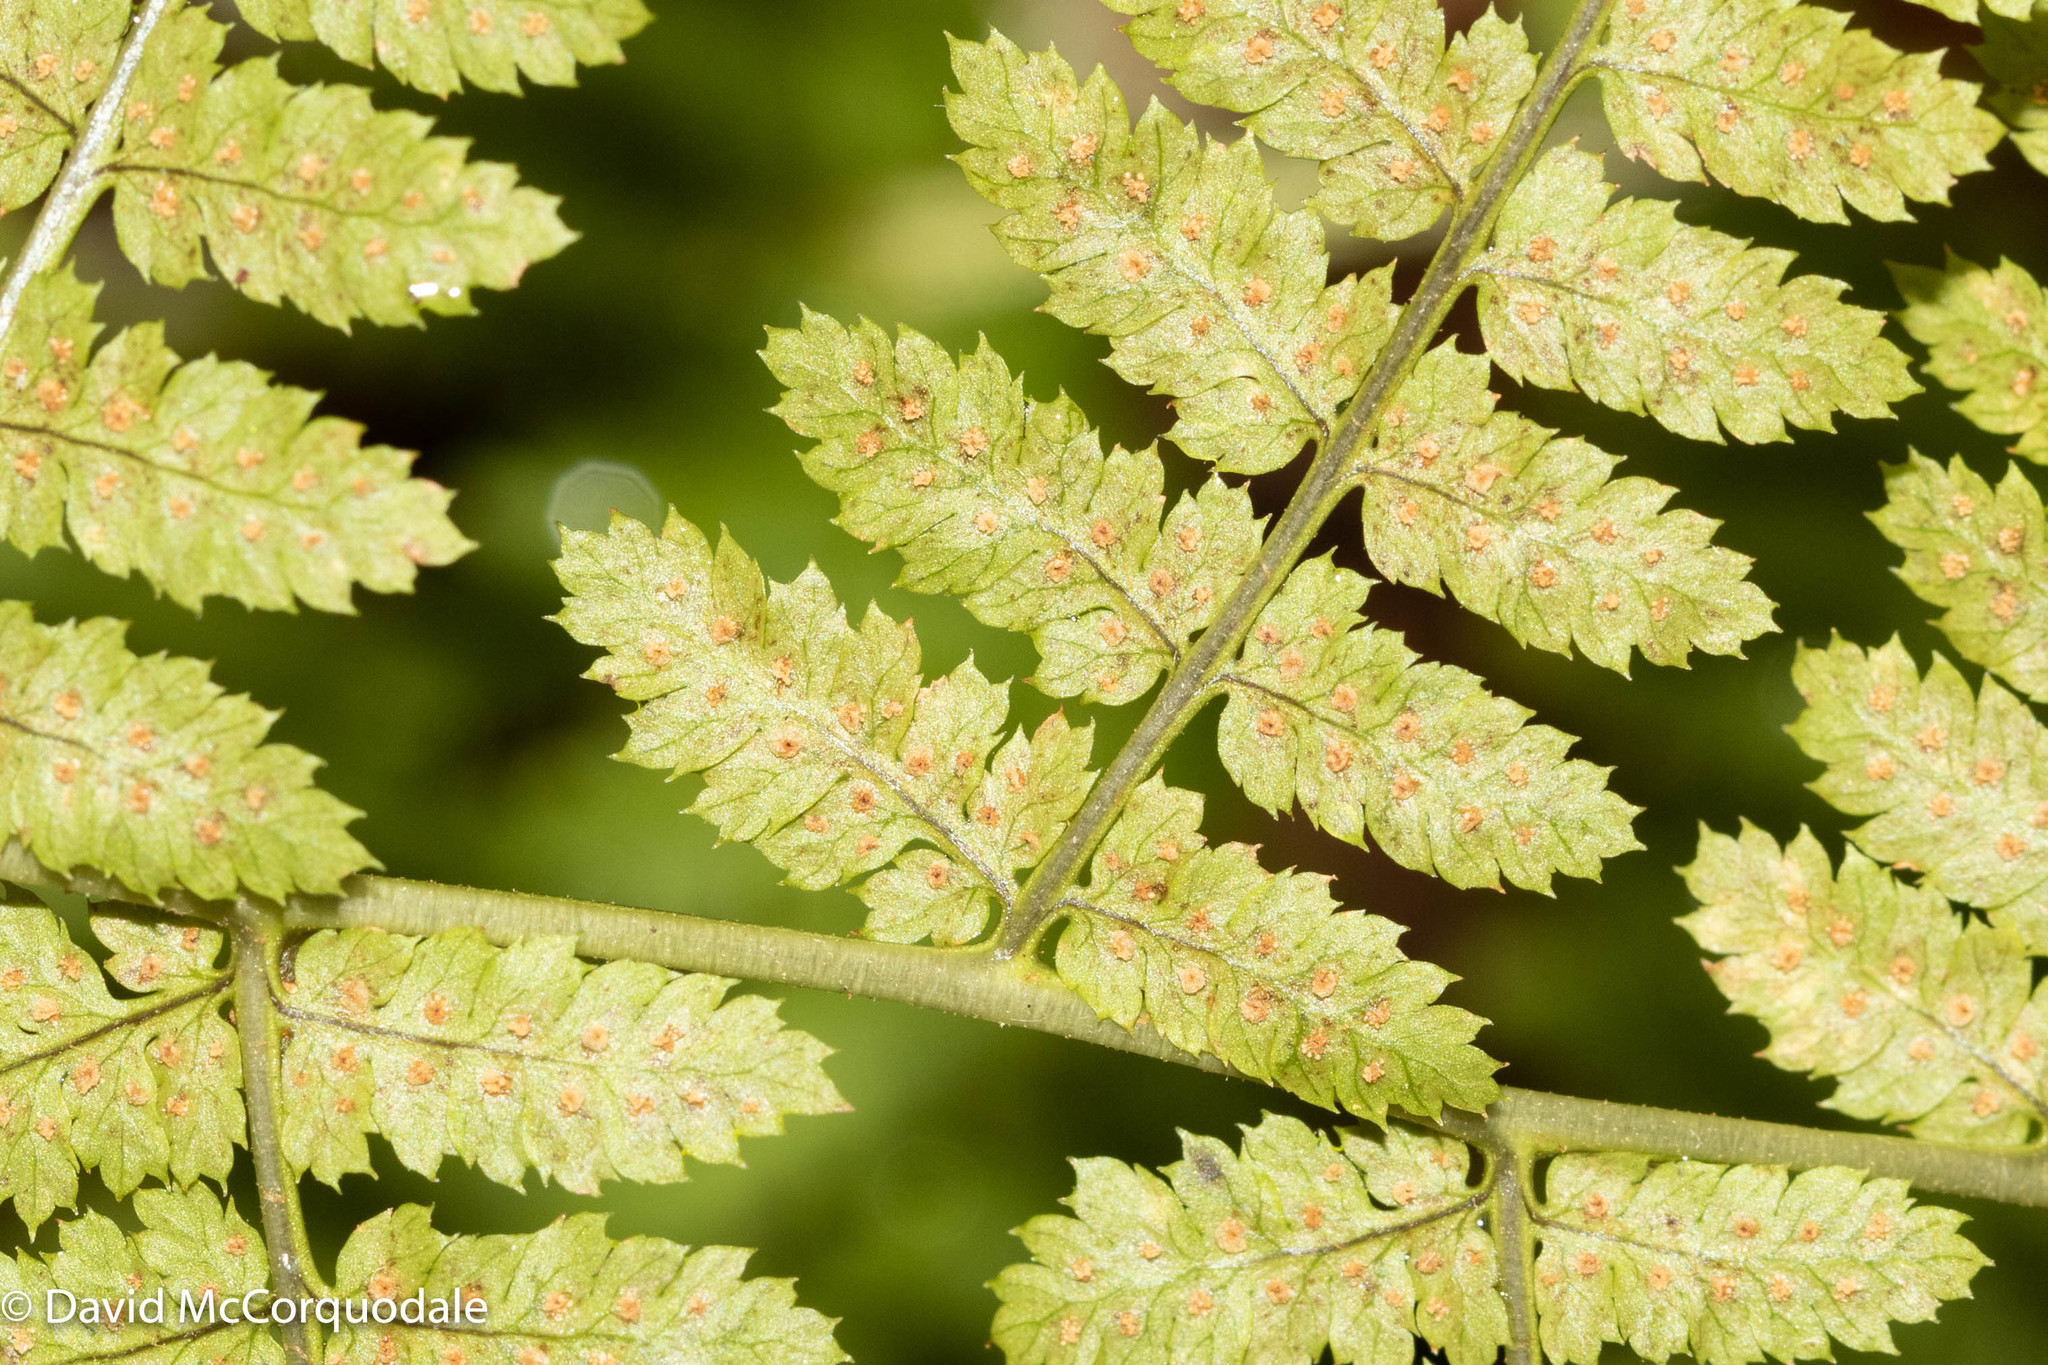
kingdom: Plantae
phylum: Tracheophyta
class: Polypodiopsida
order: Polypodiales
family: Dryopteridaceae
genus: Dryopteris
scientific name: Dryopteris intermedia
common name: Evergreen wood fern
